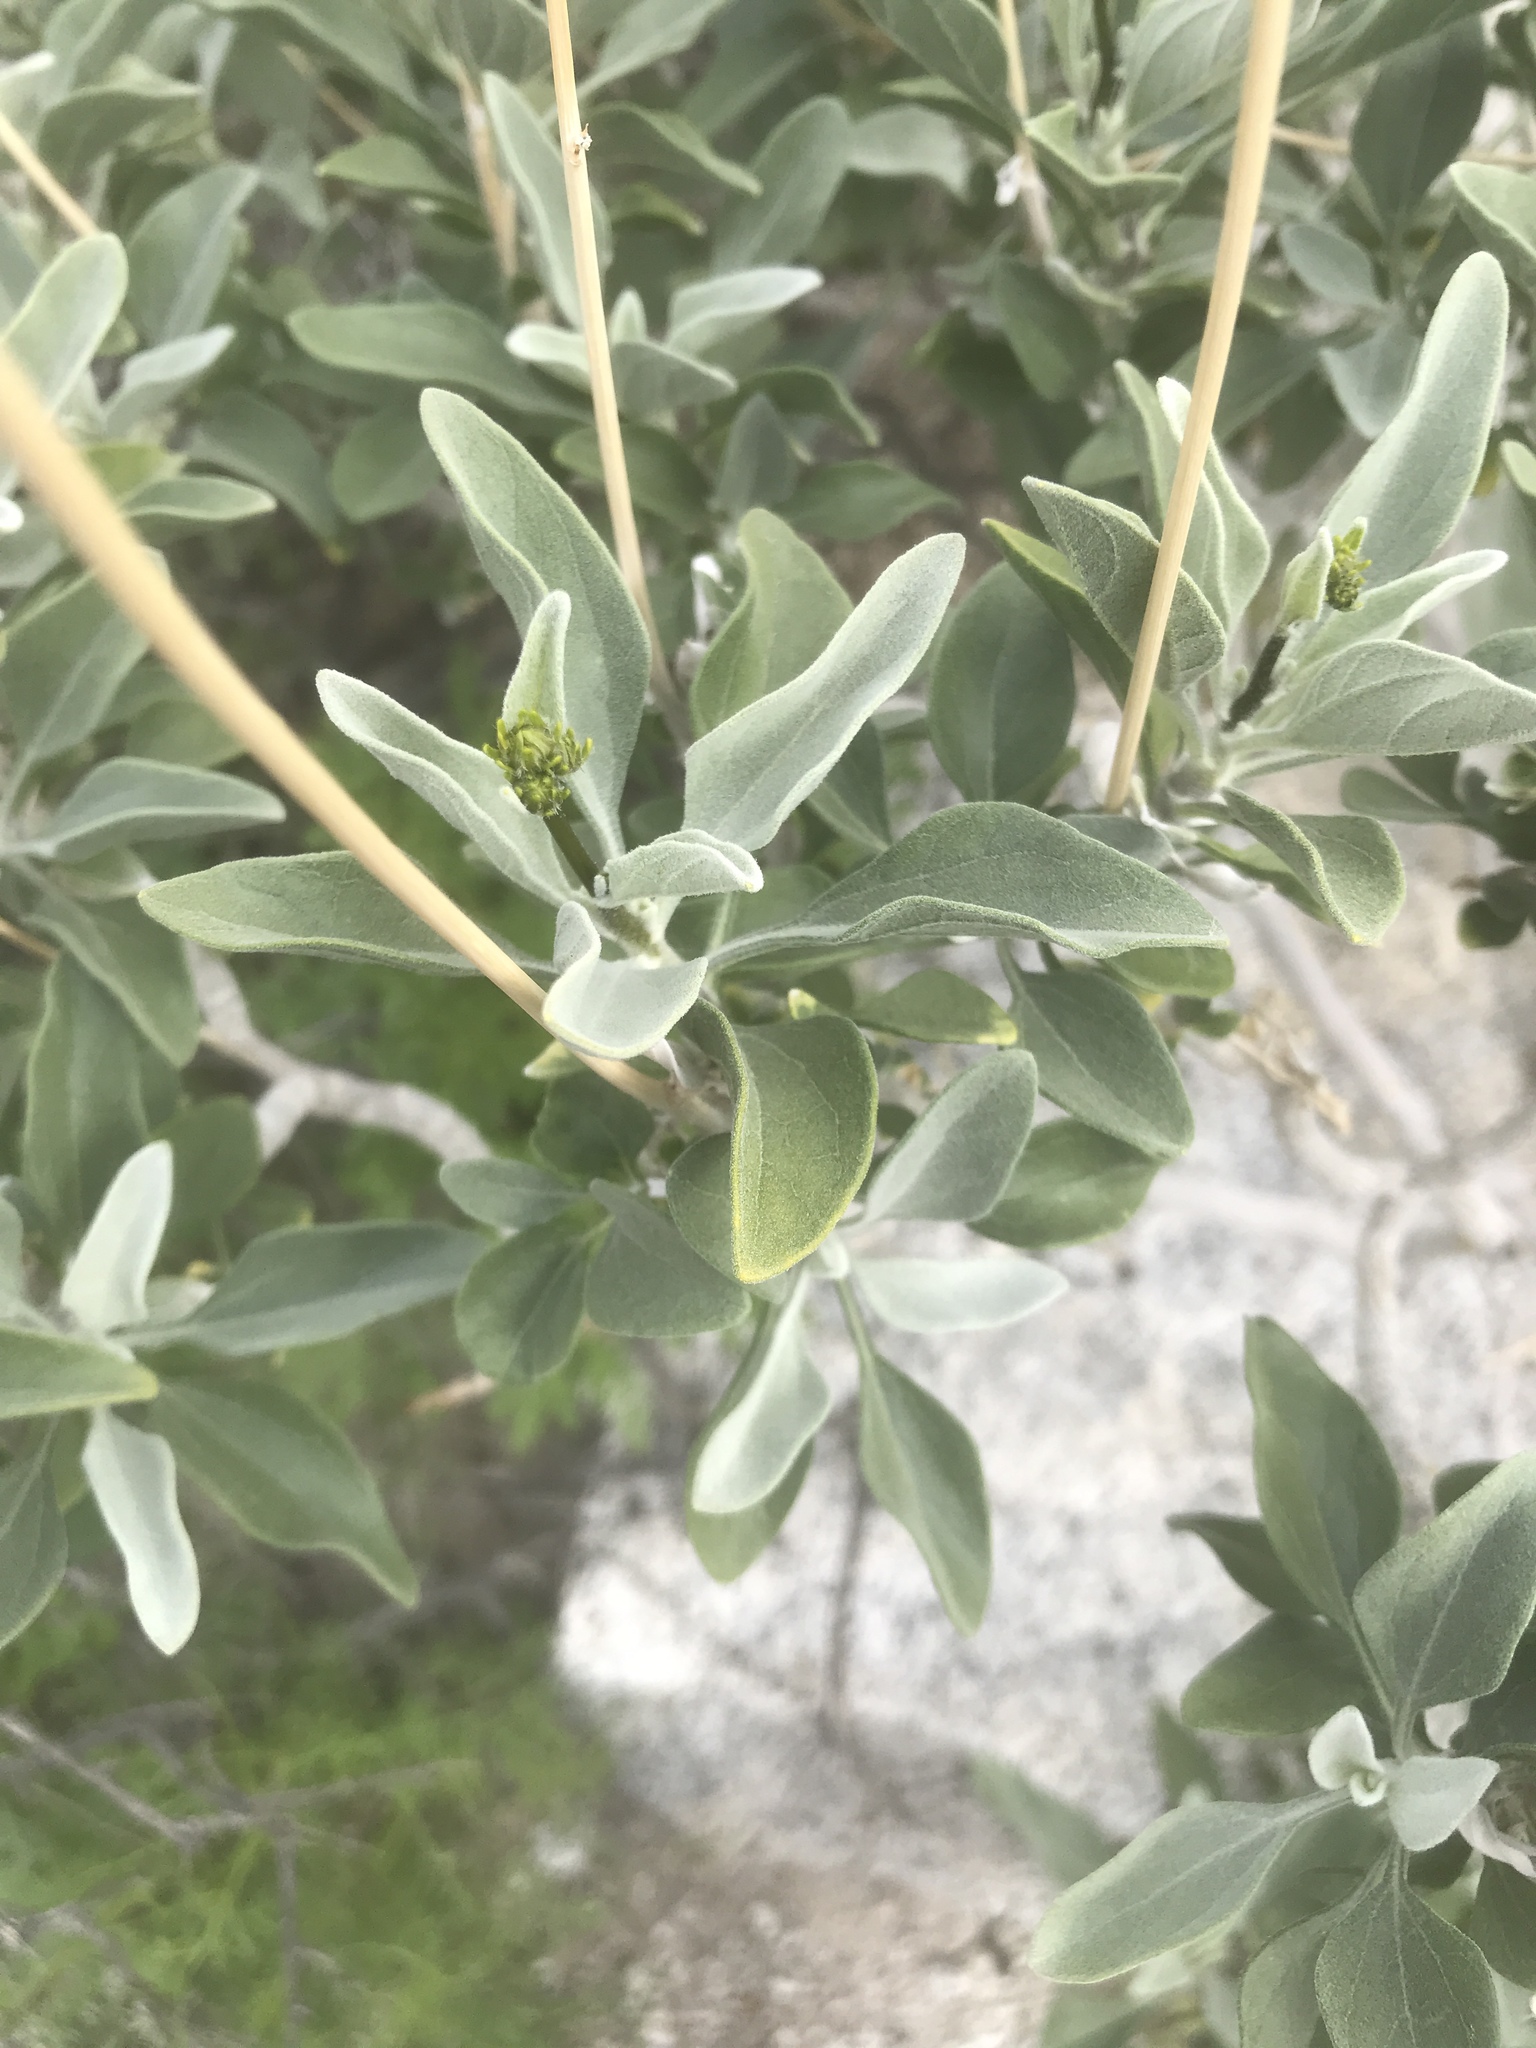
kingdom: Plantae
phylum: Tracheophyta
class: Magnoliopsida
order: Asterales
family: Asteraceae
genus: Encelia
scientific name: Encelia farinosa
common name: Brittlebush
